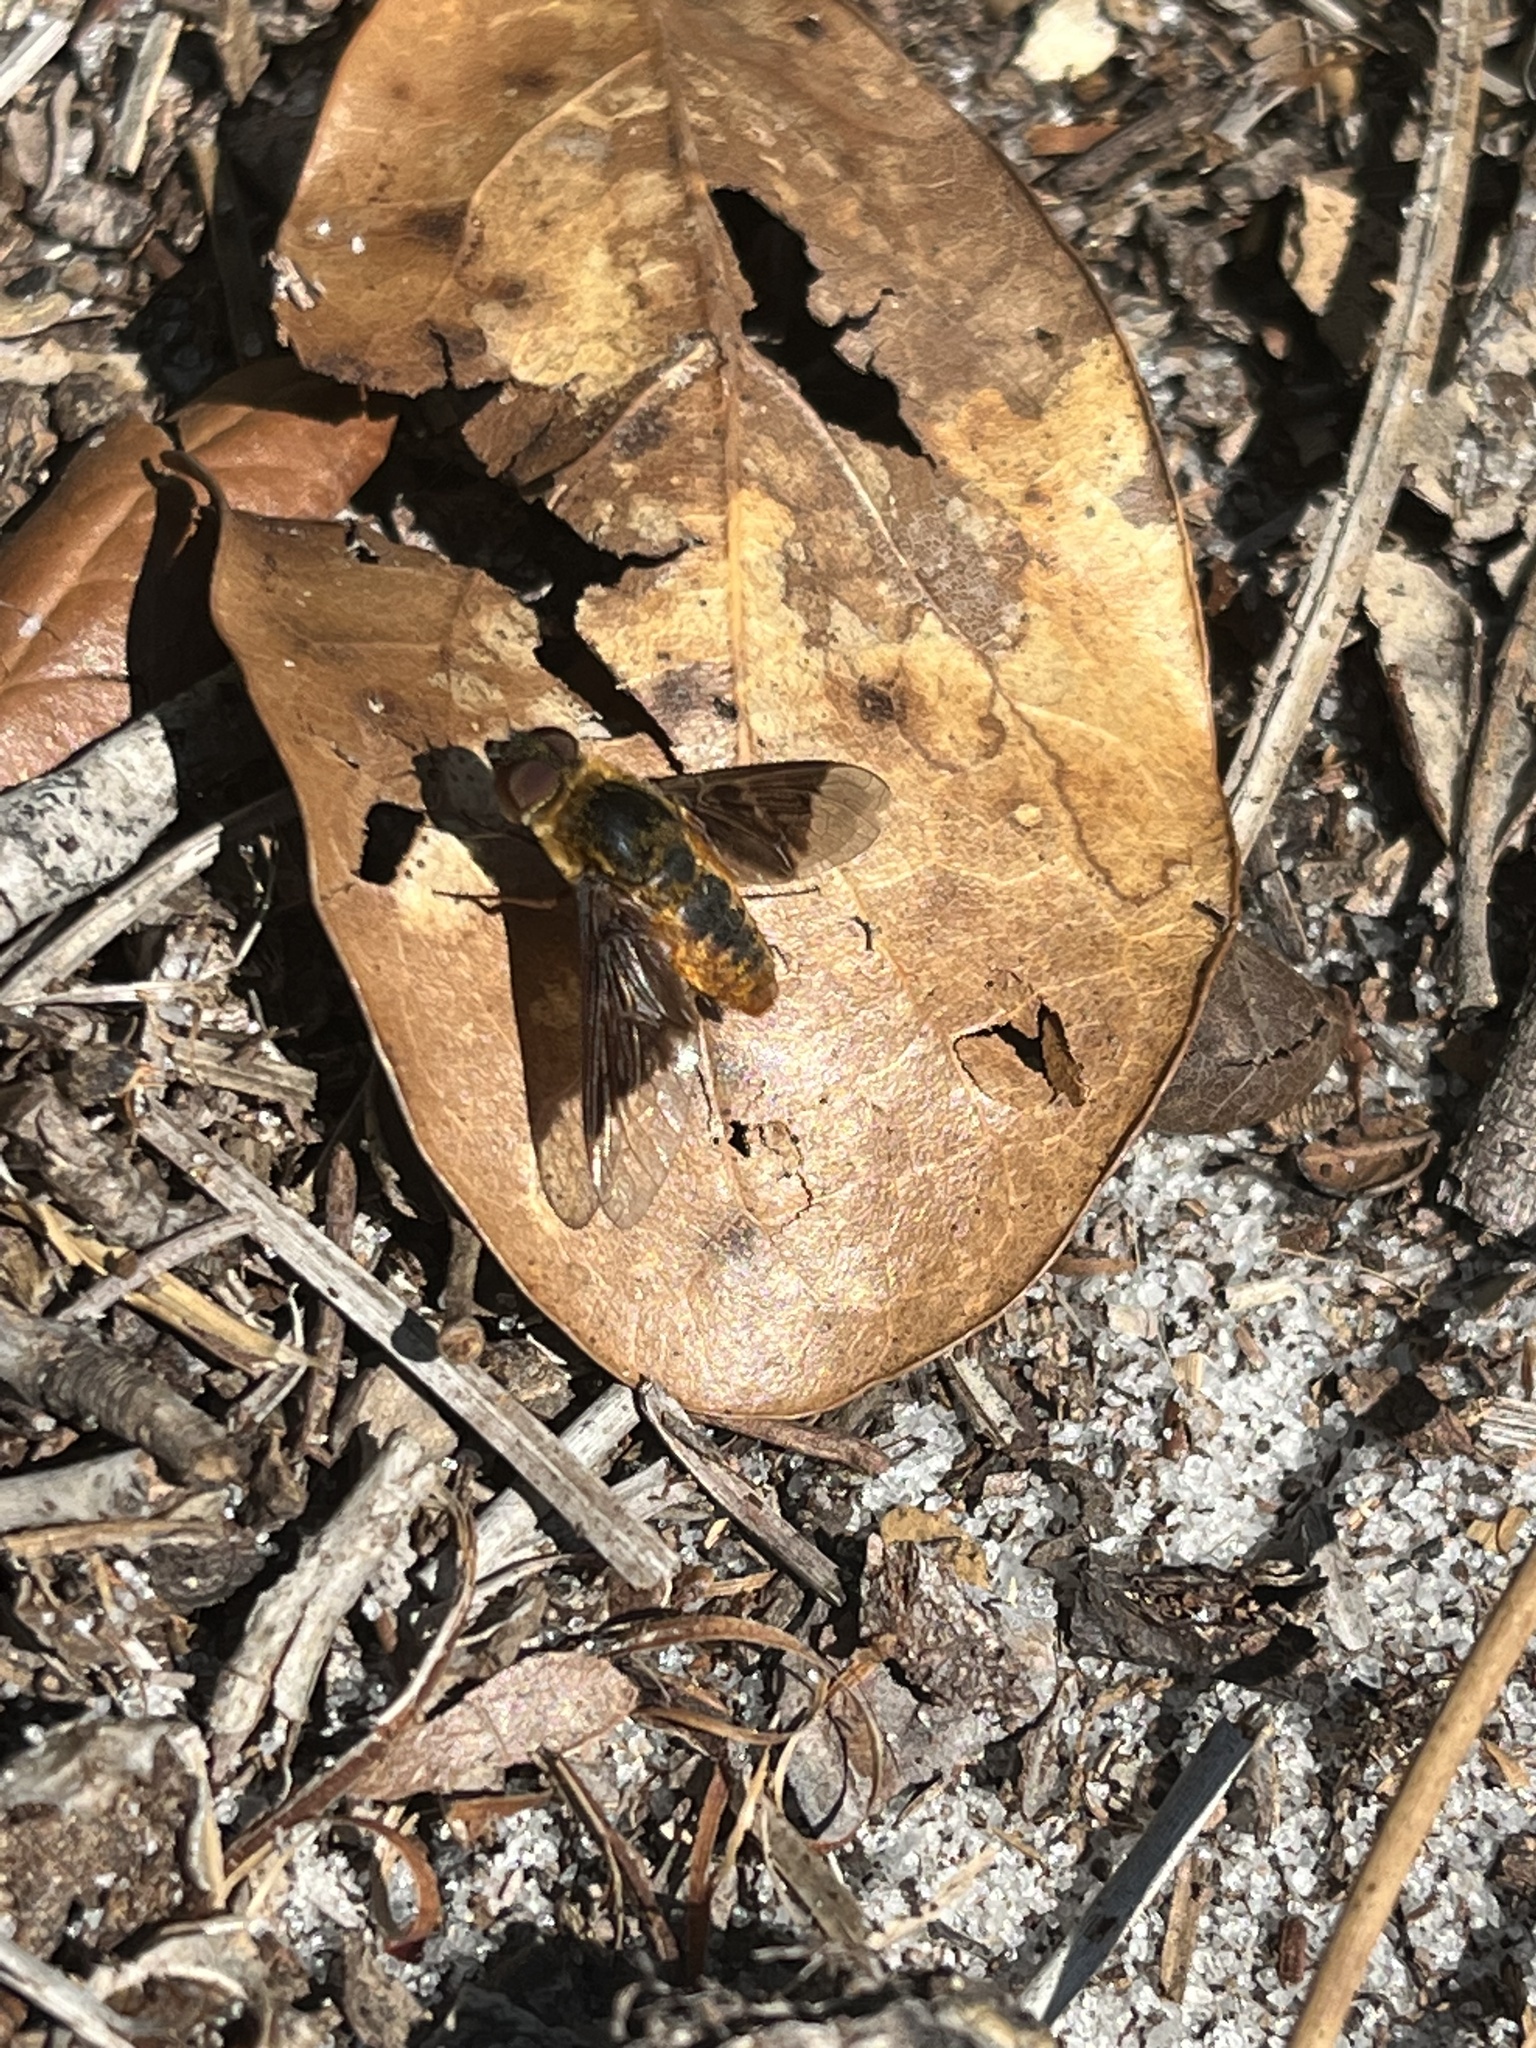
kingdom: Animalia
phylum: Arthropoda
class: Insecta
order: Diptera
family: Bombyliidae
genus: Chrysanthrax
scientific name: Chrysanthrax cypris
